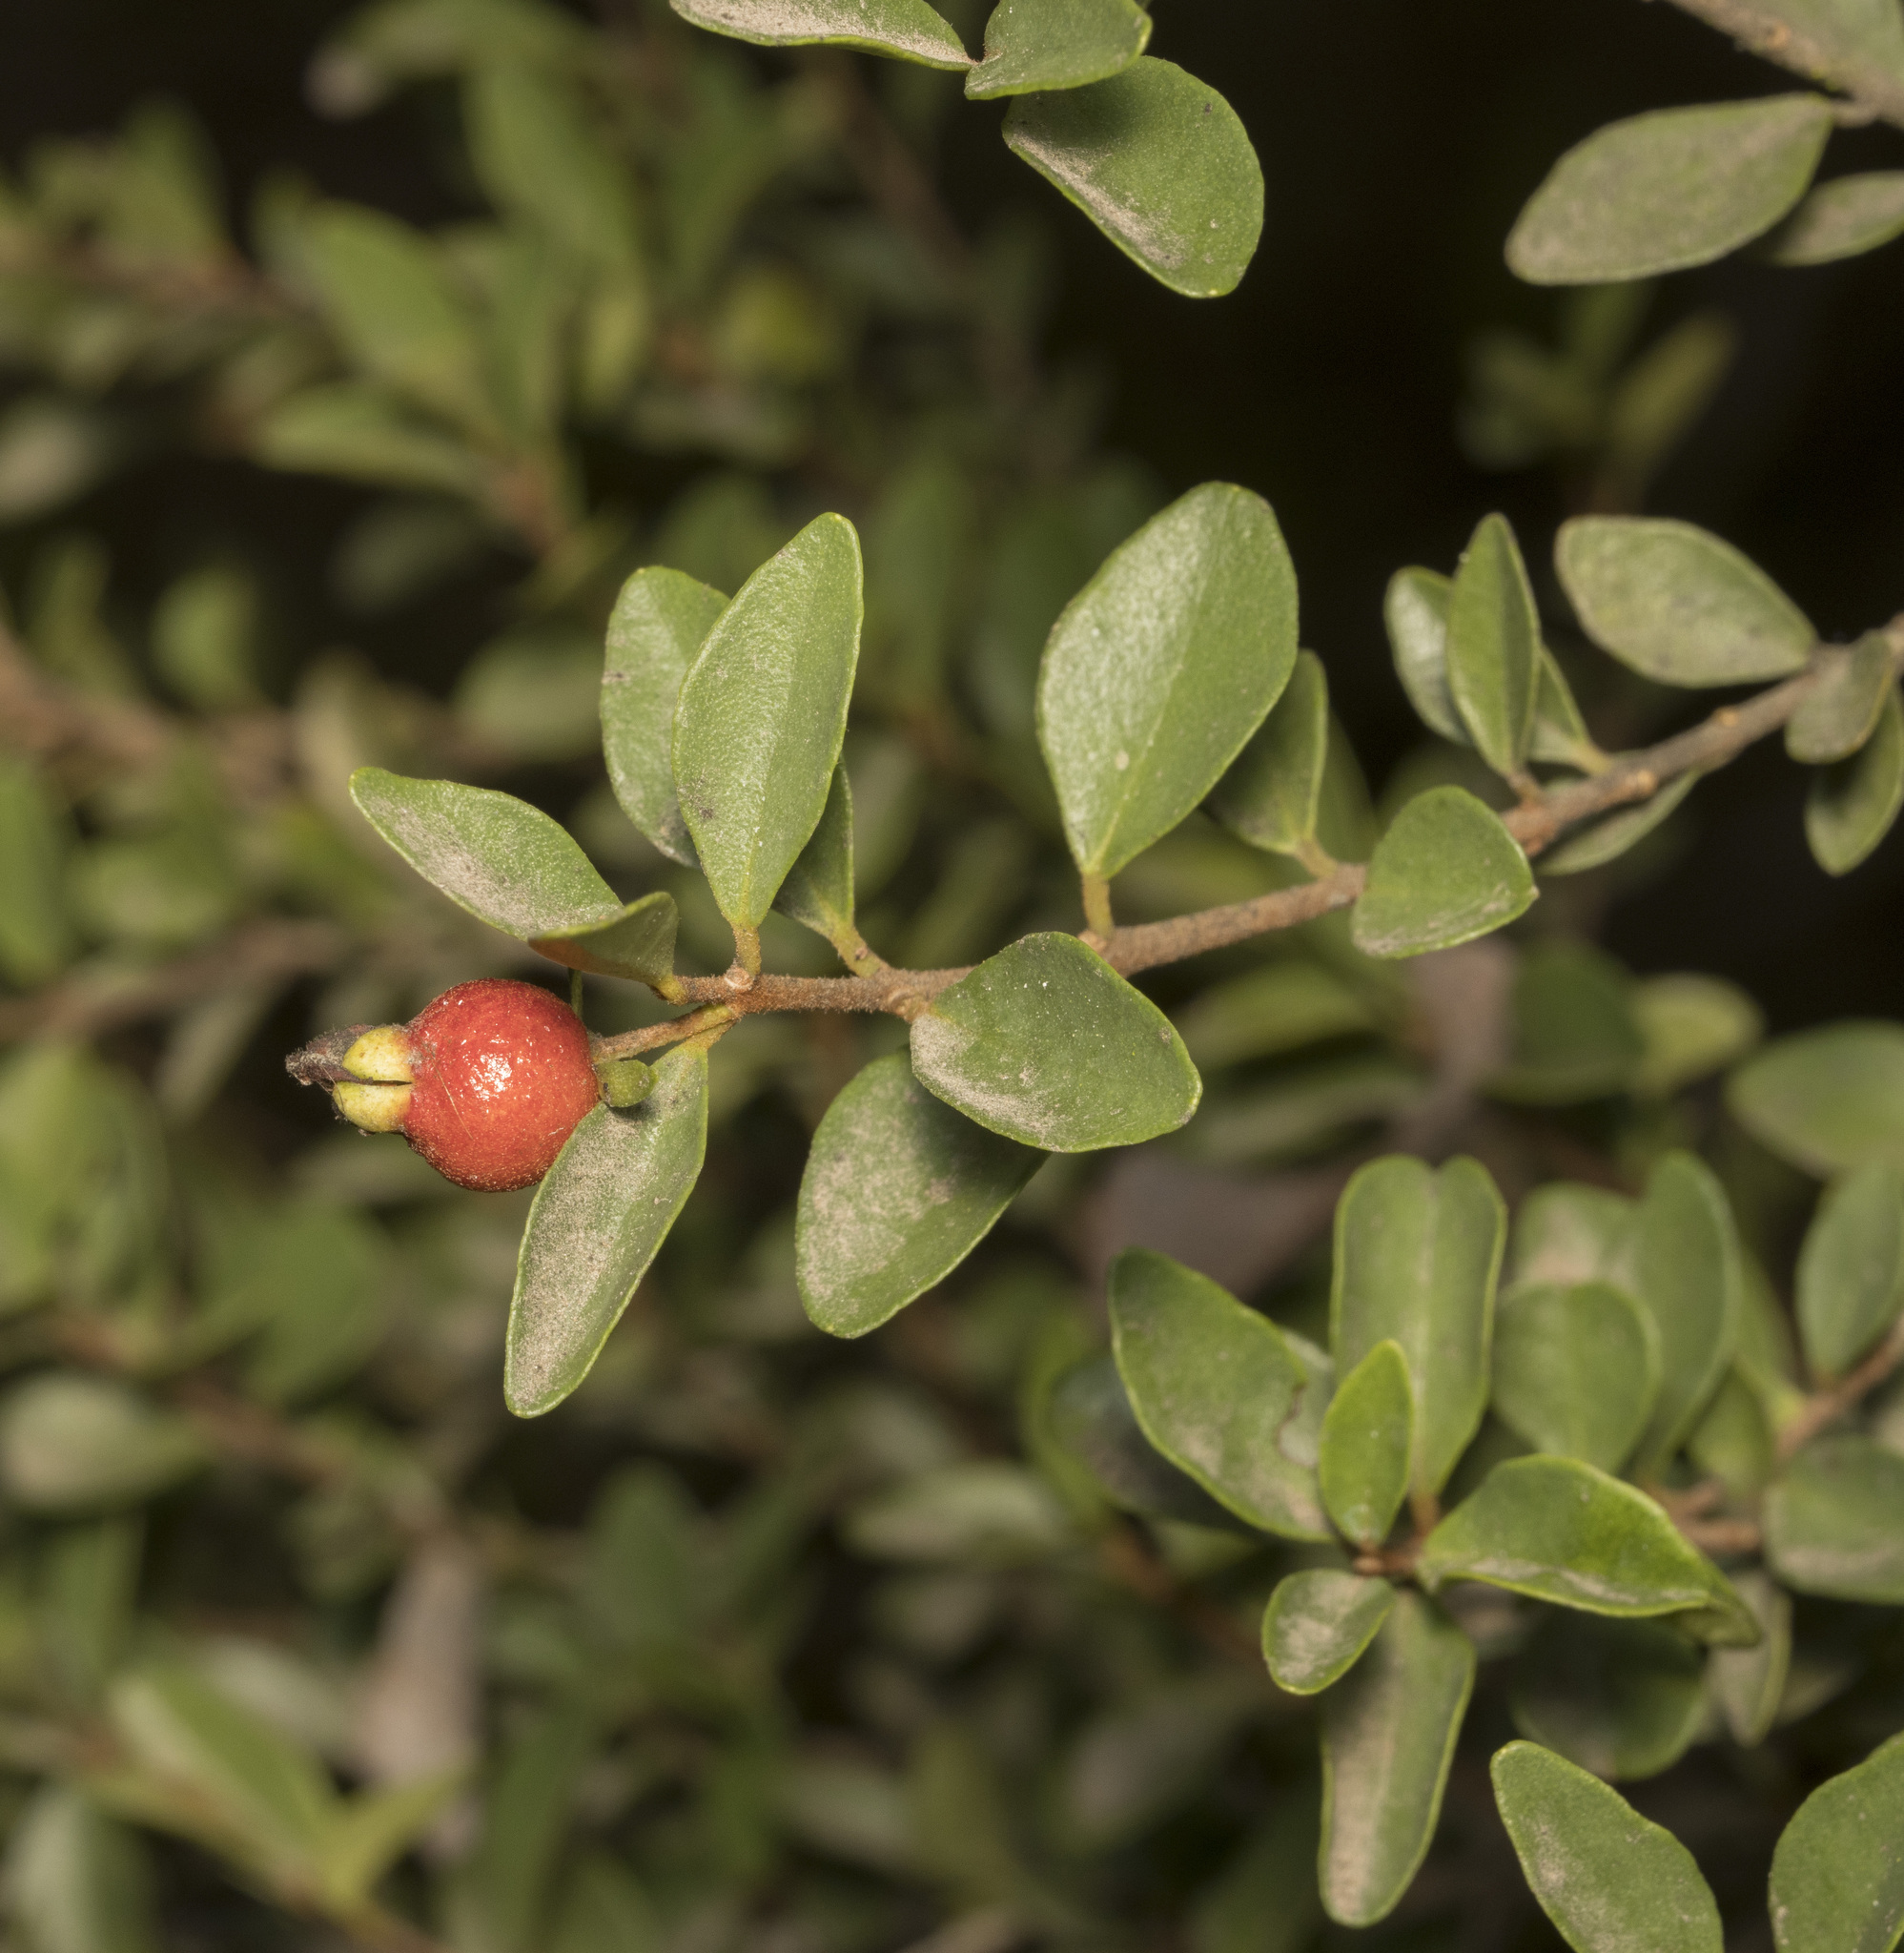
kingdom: Plantae
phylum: Tracheophyta
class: Magnoliopsida
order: Myrtales
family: Myrtaceae
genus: Myrceugenia
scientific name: Myrceugenia obtusa
